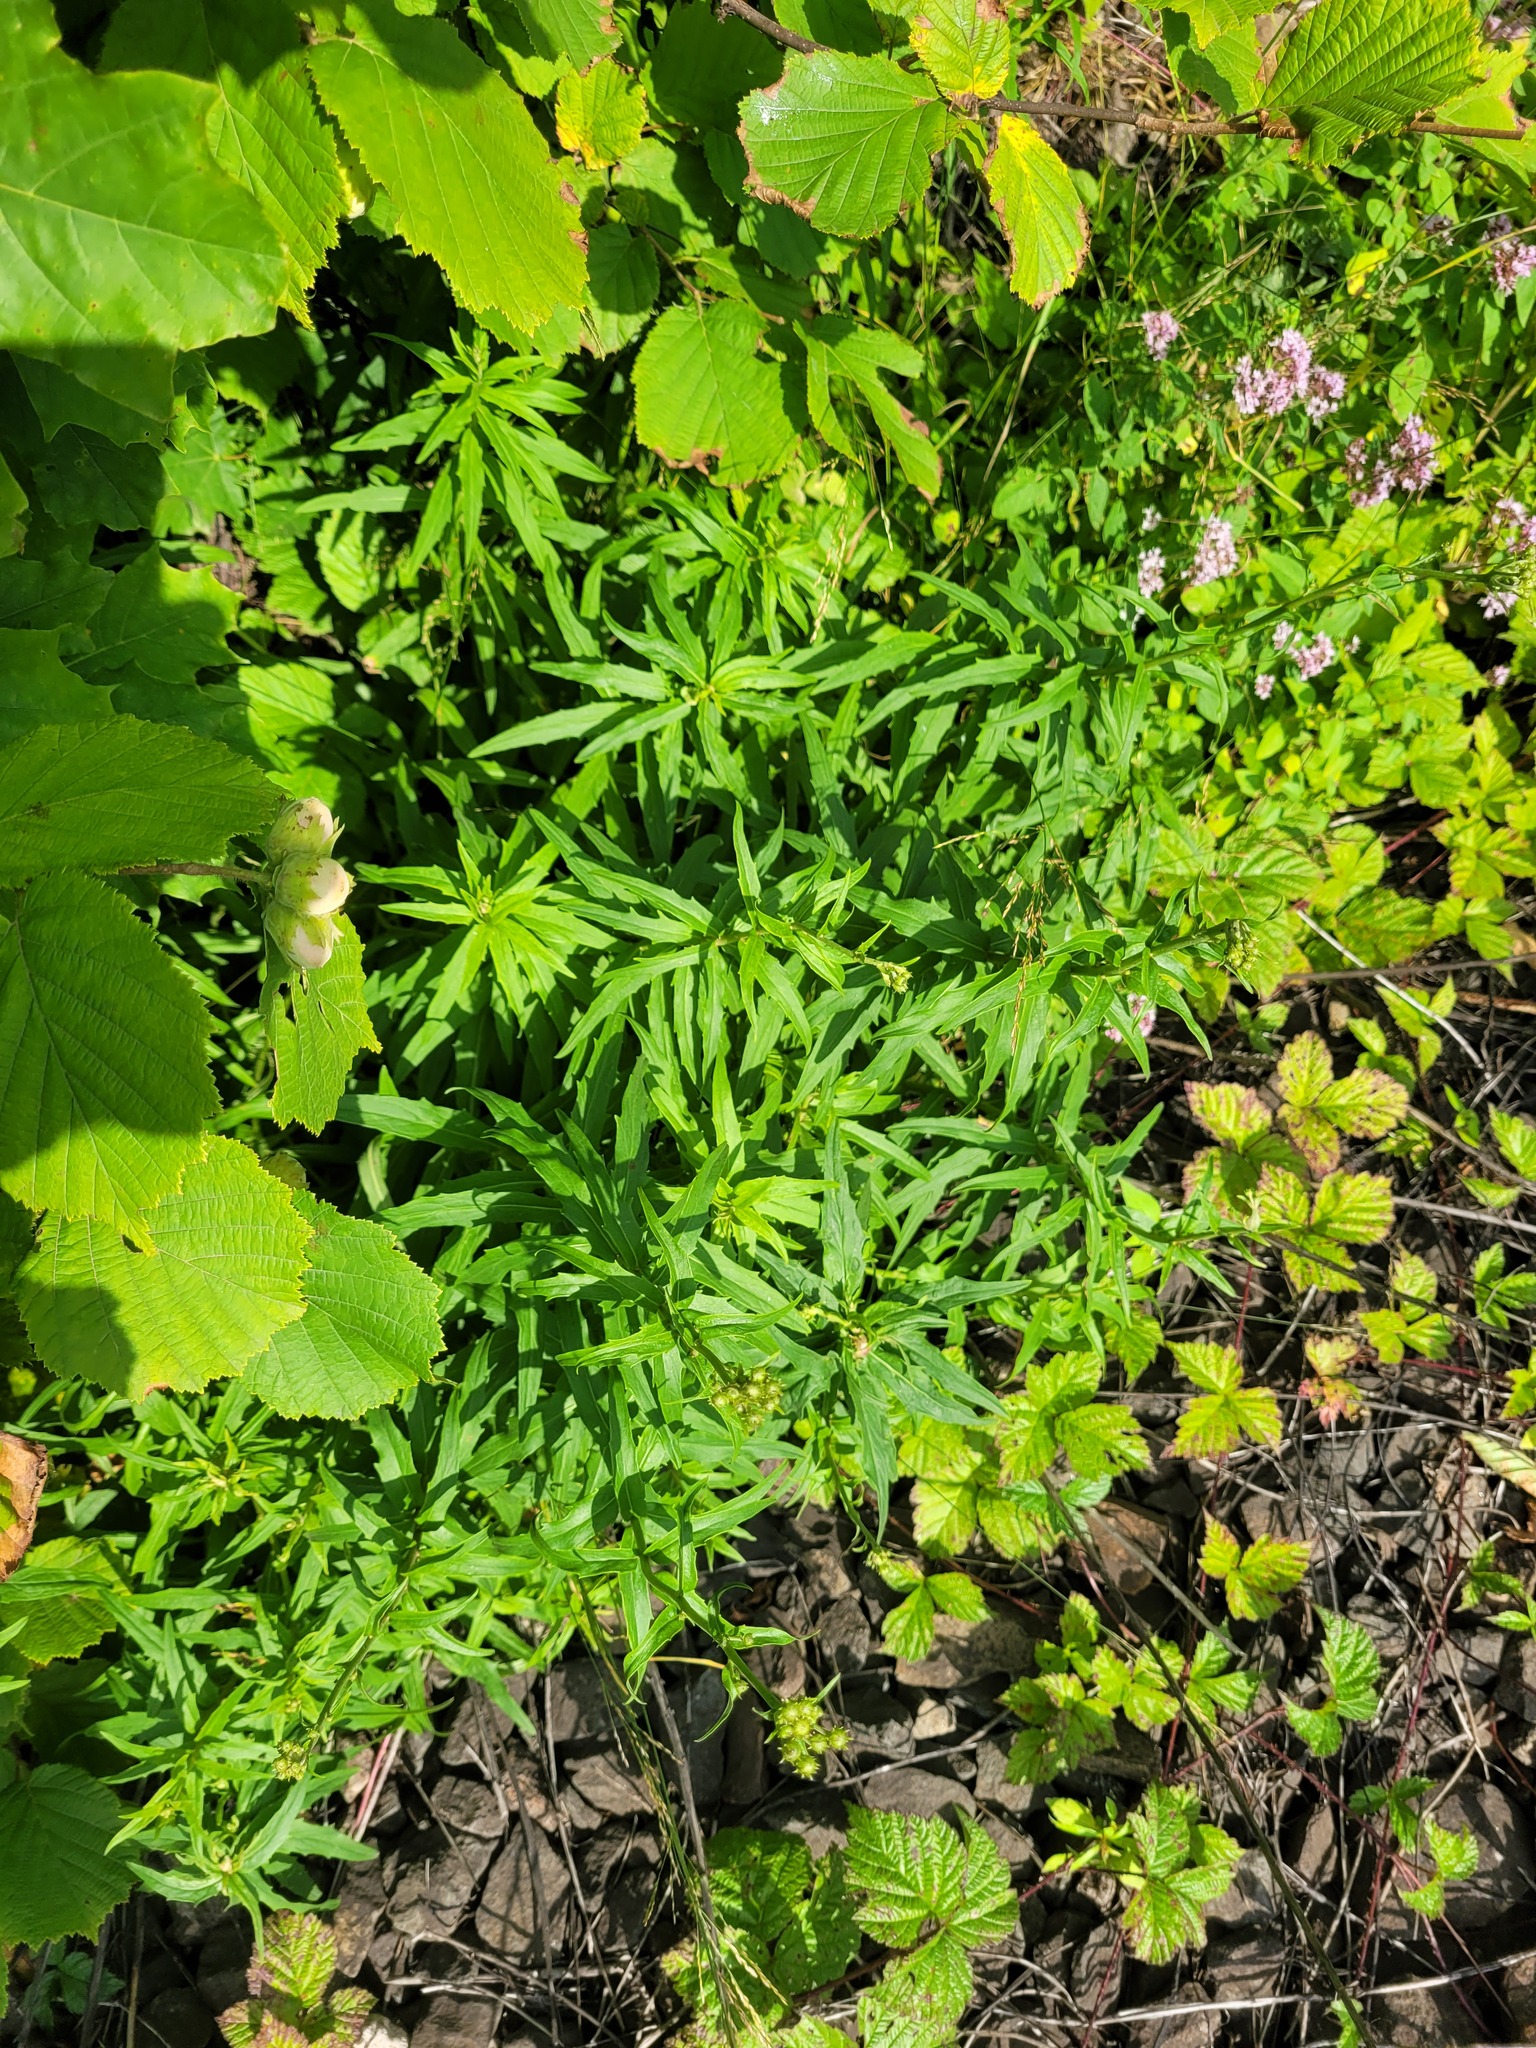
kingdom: Plantae
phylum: Tracheophyta
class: Magnoliopsida
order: Asterales
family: Asteraceae
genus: Hieracium
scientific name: Hieracium umbellatum
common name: Northern hawkweed
